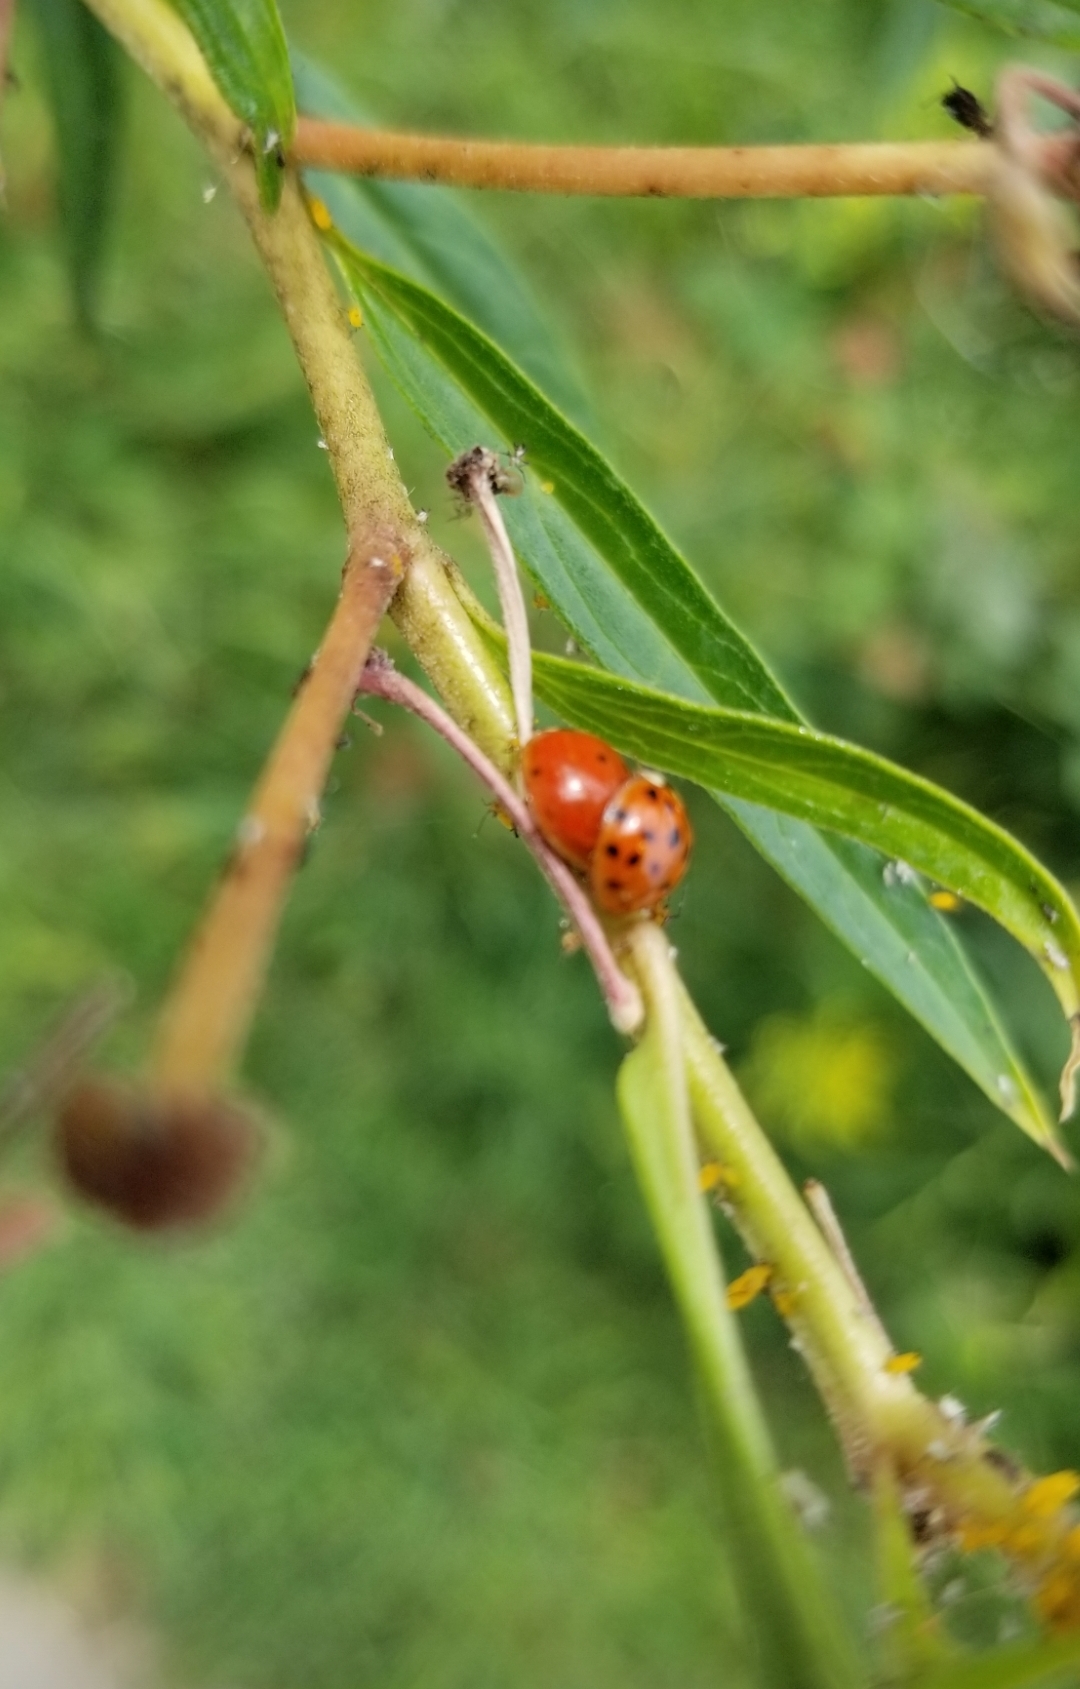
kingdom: Animalia
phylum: Arthropoda
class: Insecta
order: Coleoptera
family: Coccinellidae
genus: Harmonia
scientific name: Harmonia axyridis
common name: Harlequin ladybird
